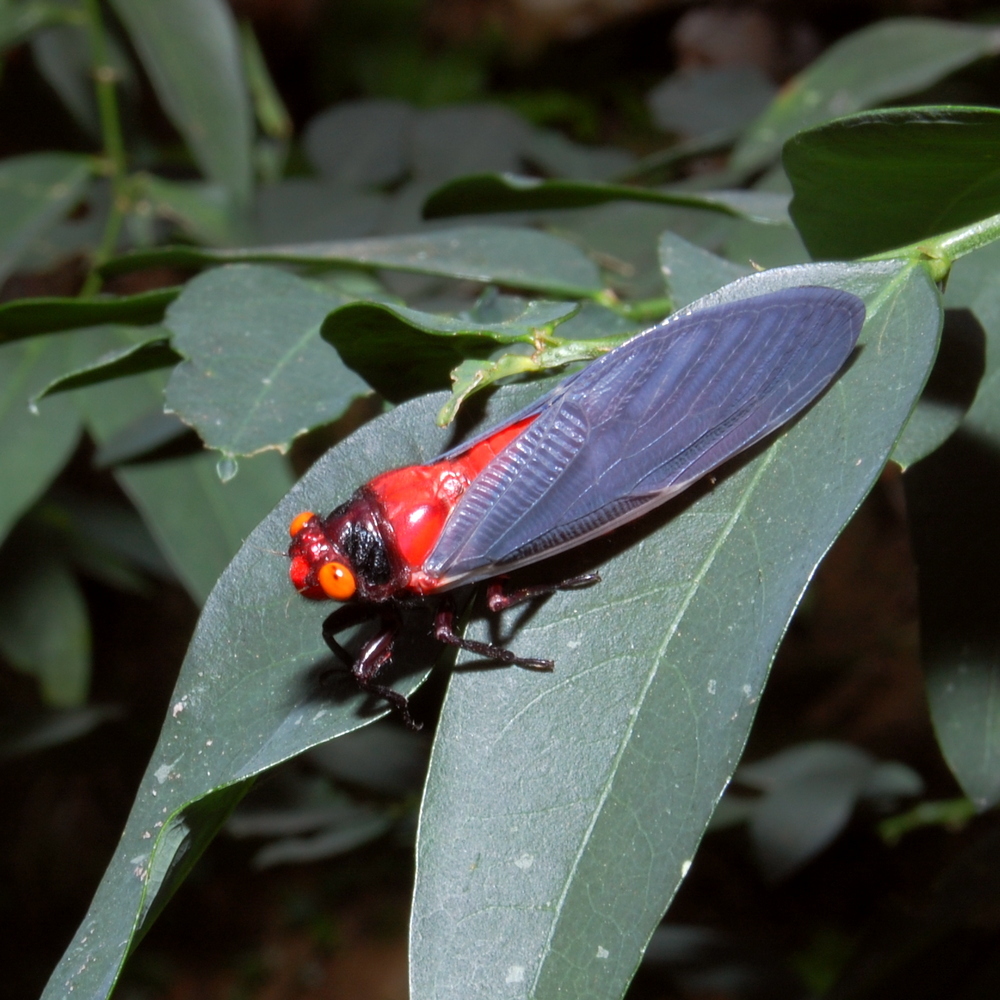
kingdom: Animalia
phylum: Arthropoda
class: Insecta
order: Hemiptera
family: Cicadidae
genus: Huechys
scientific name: Huechys sanguinea
